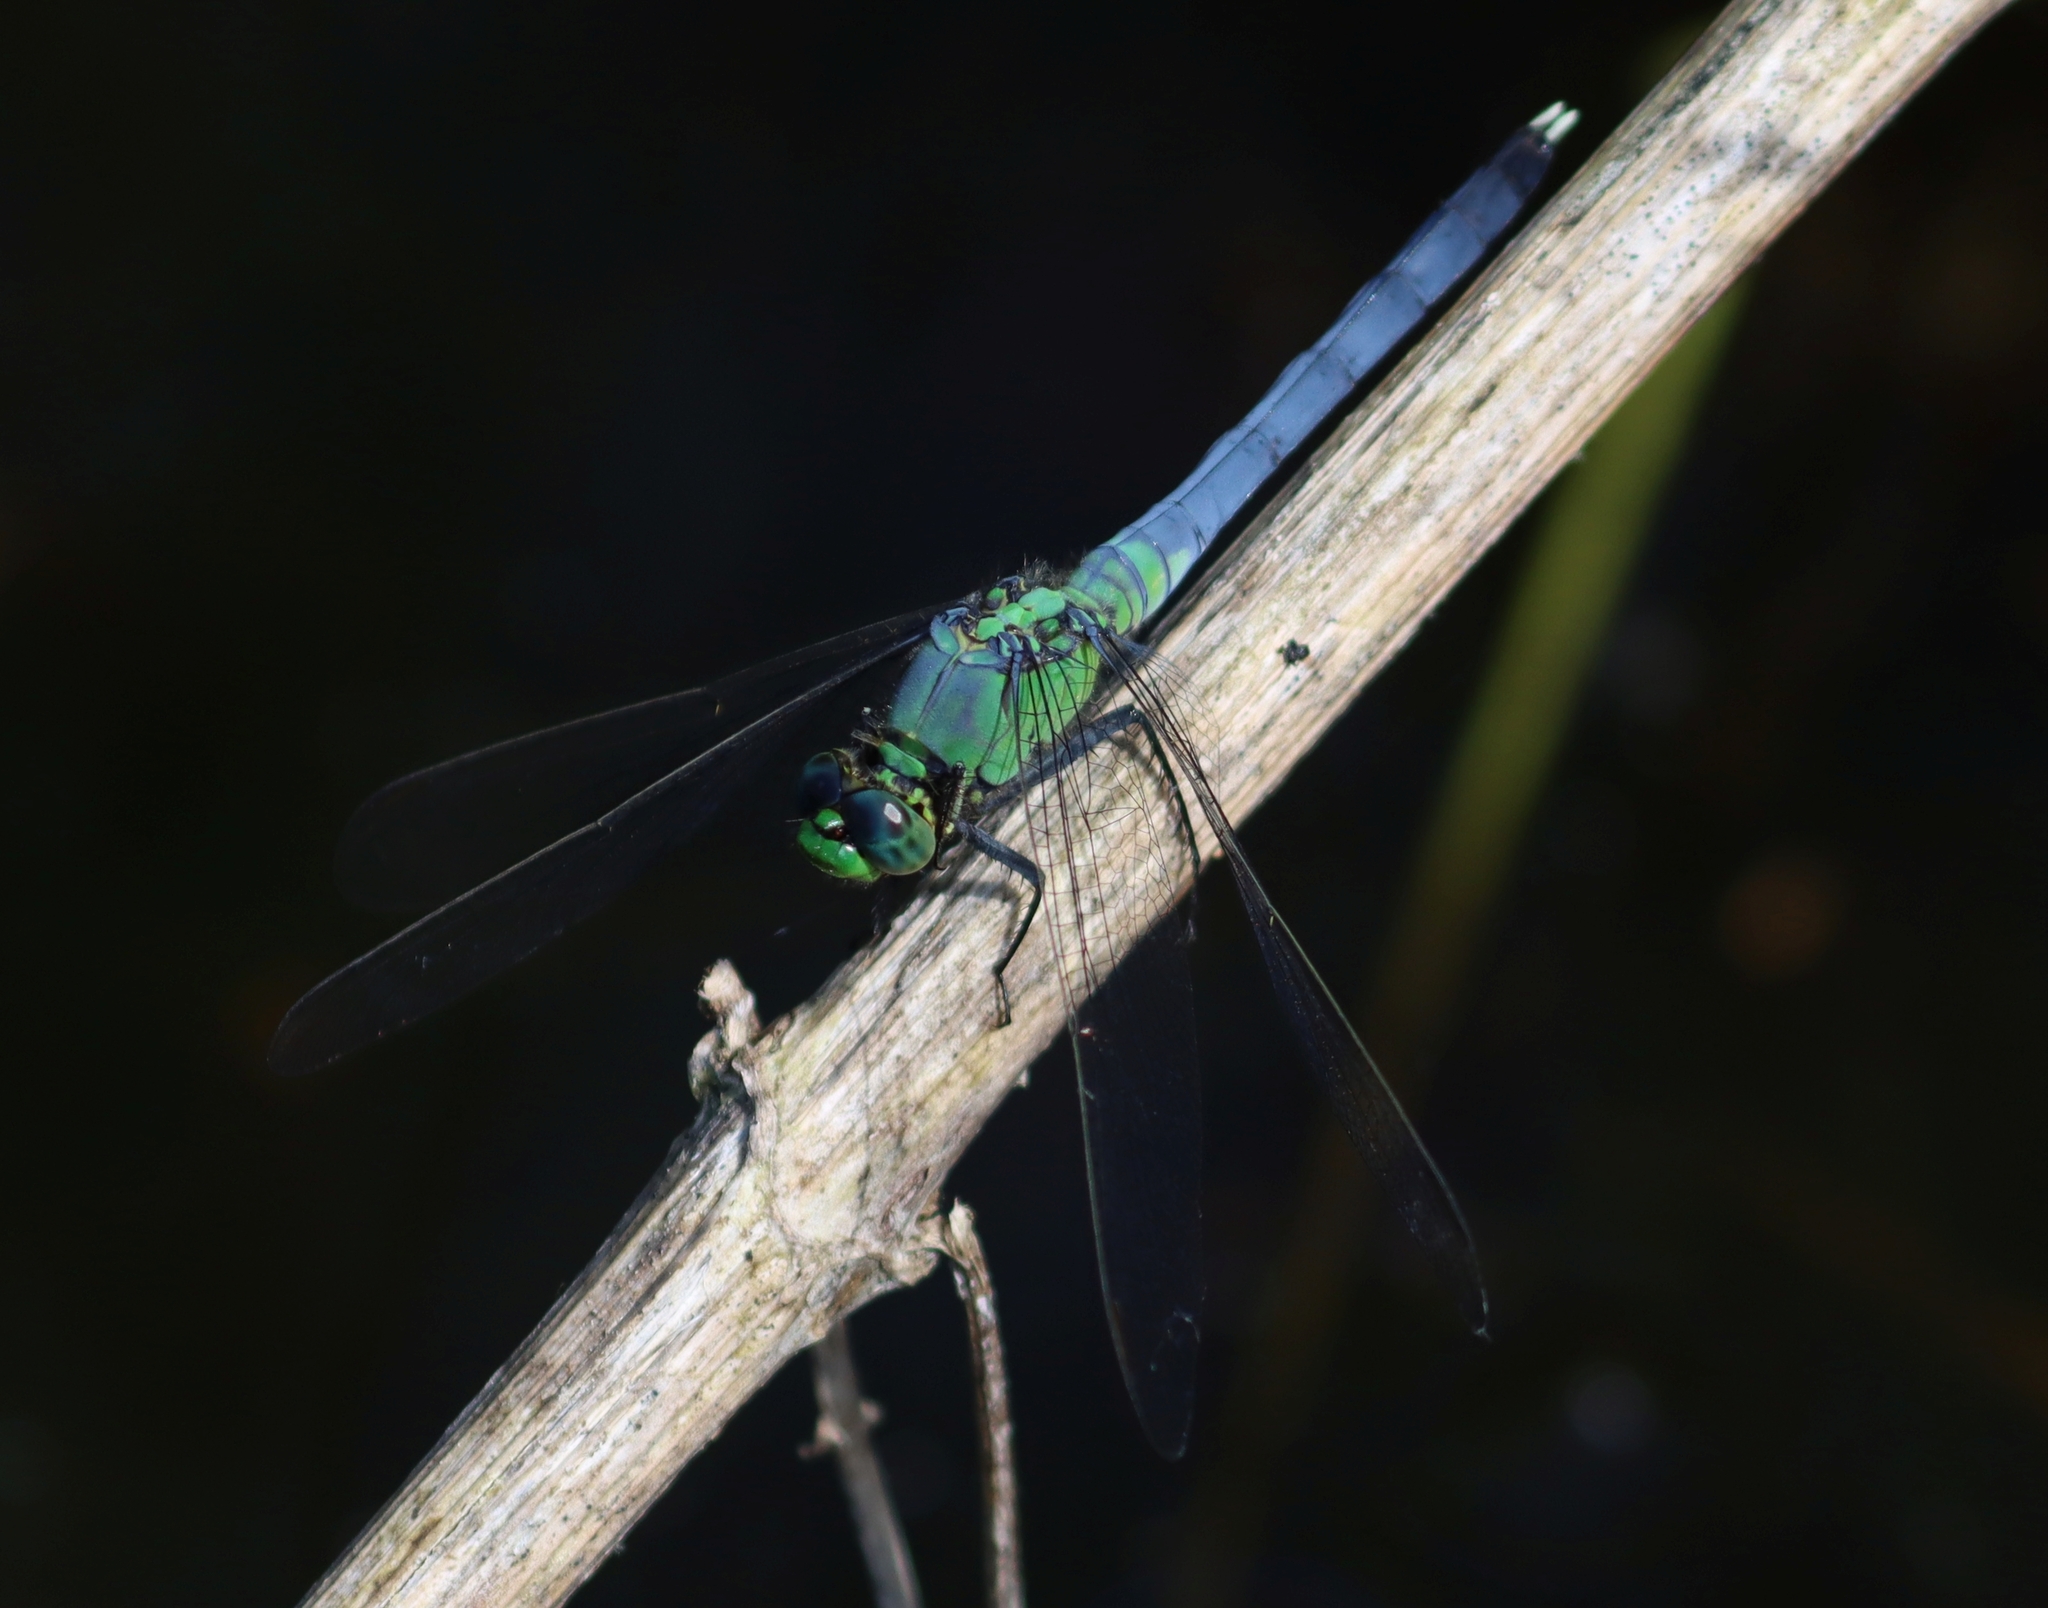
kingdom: Animalia
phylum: Arthropoda
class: Insecta
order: Odonata
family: Libellulidae
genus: Erythemis
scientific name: Erythemis simplicicollis
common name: Eastern pondhawk
